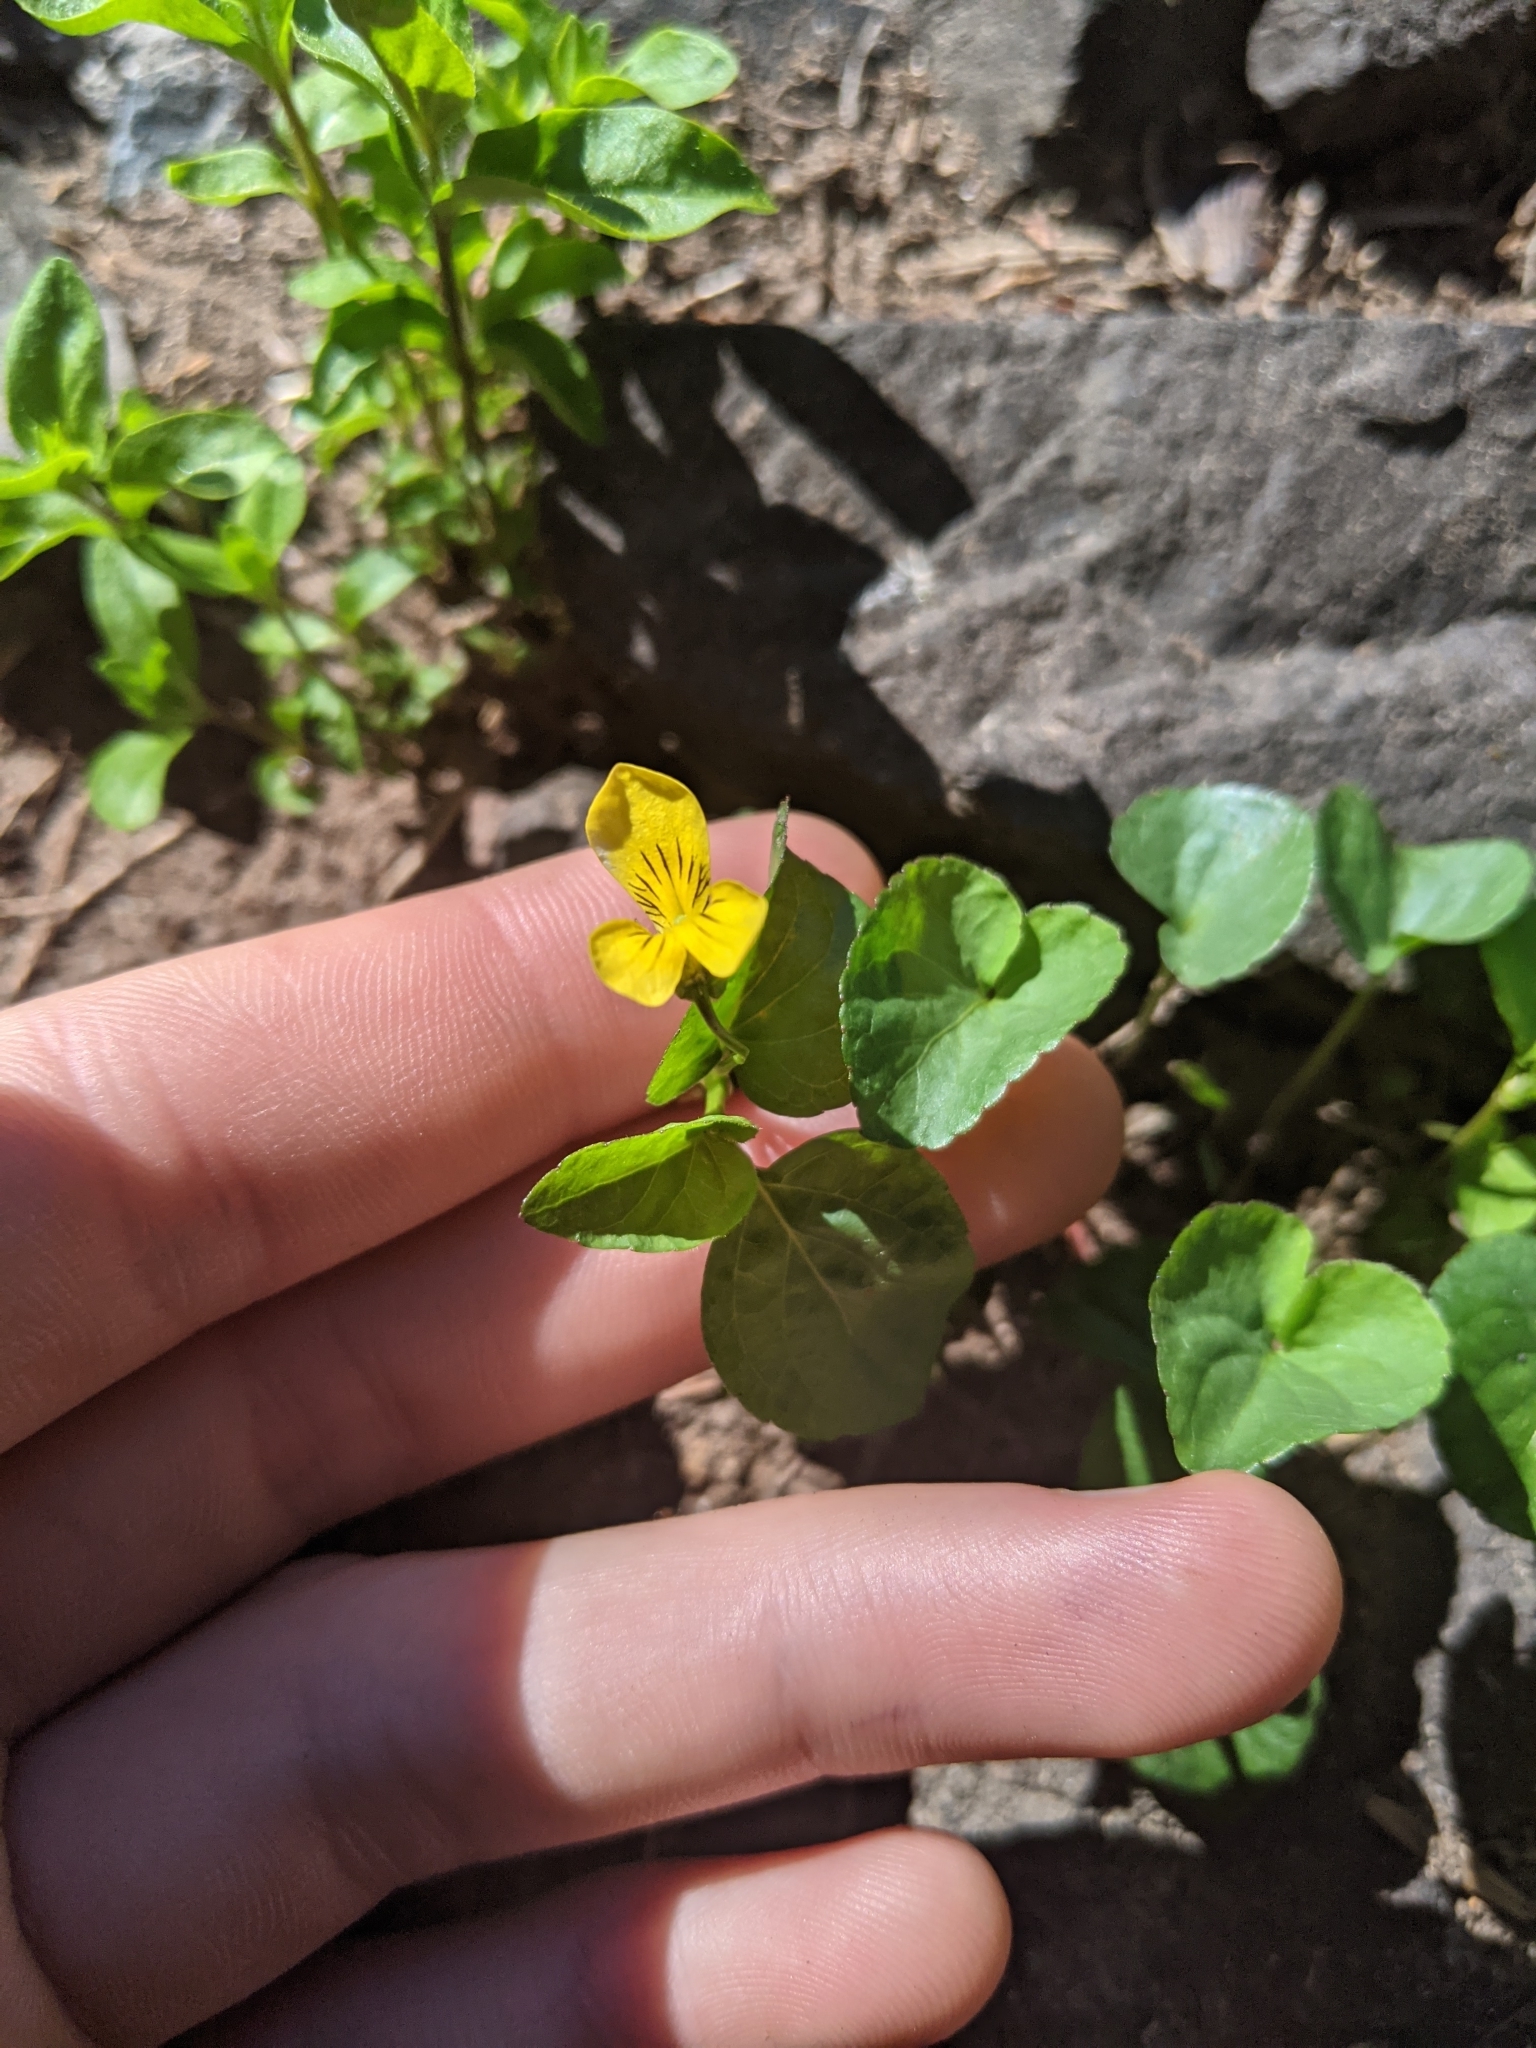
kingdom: Plantae
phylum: Tracheophyta
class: Magnoliopsida
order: Malpighiales
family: Violaceae
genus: Viola
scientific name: Viola glabella
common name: Stream violet
